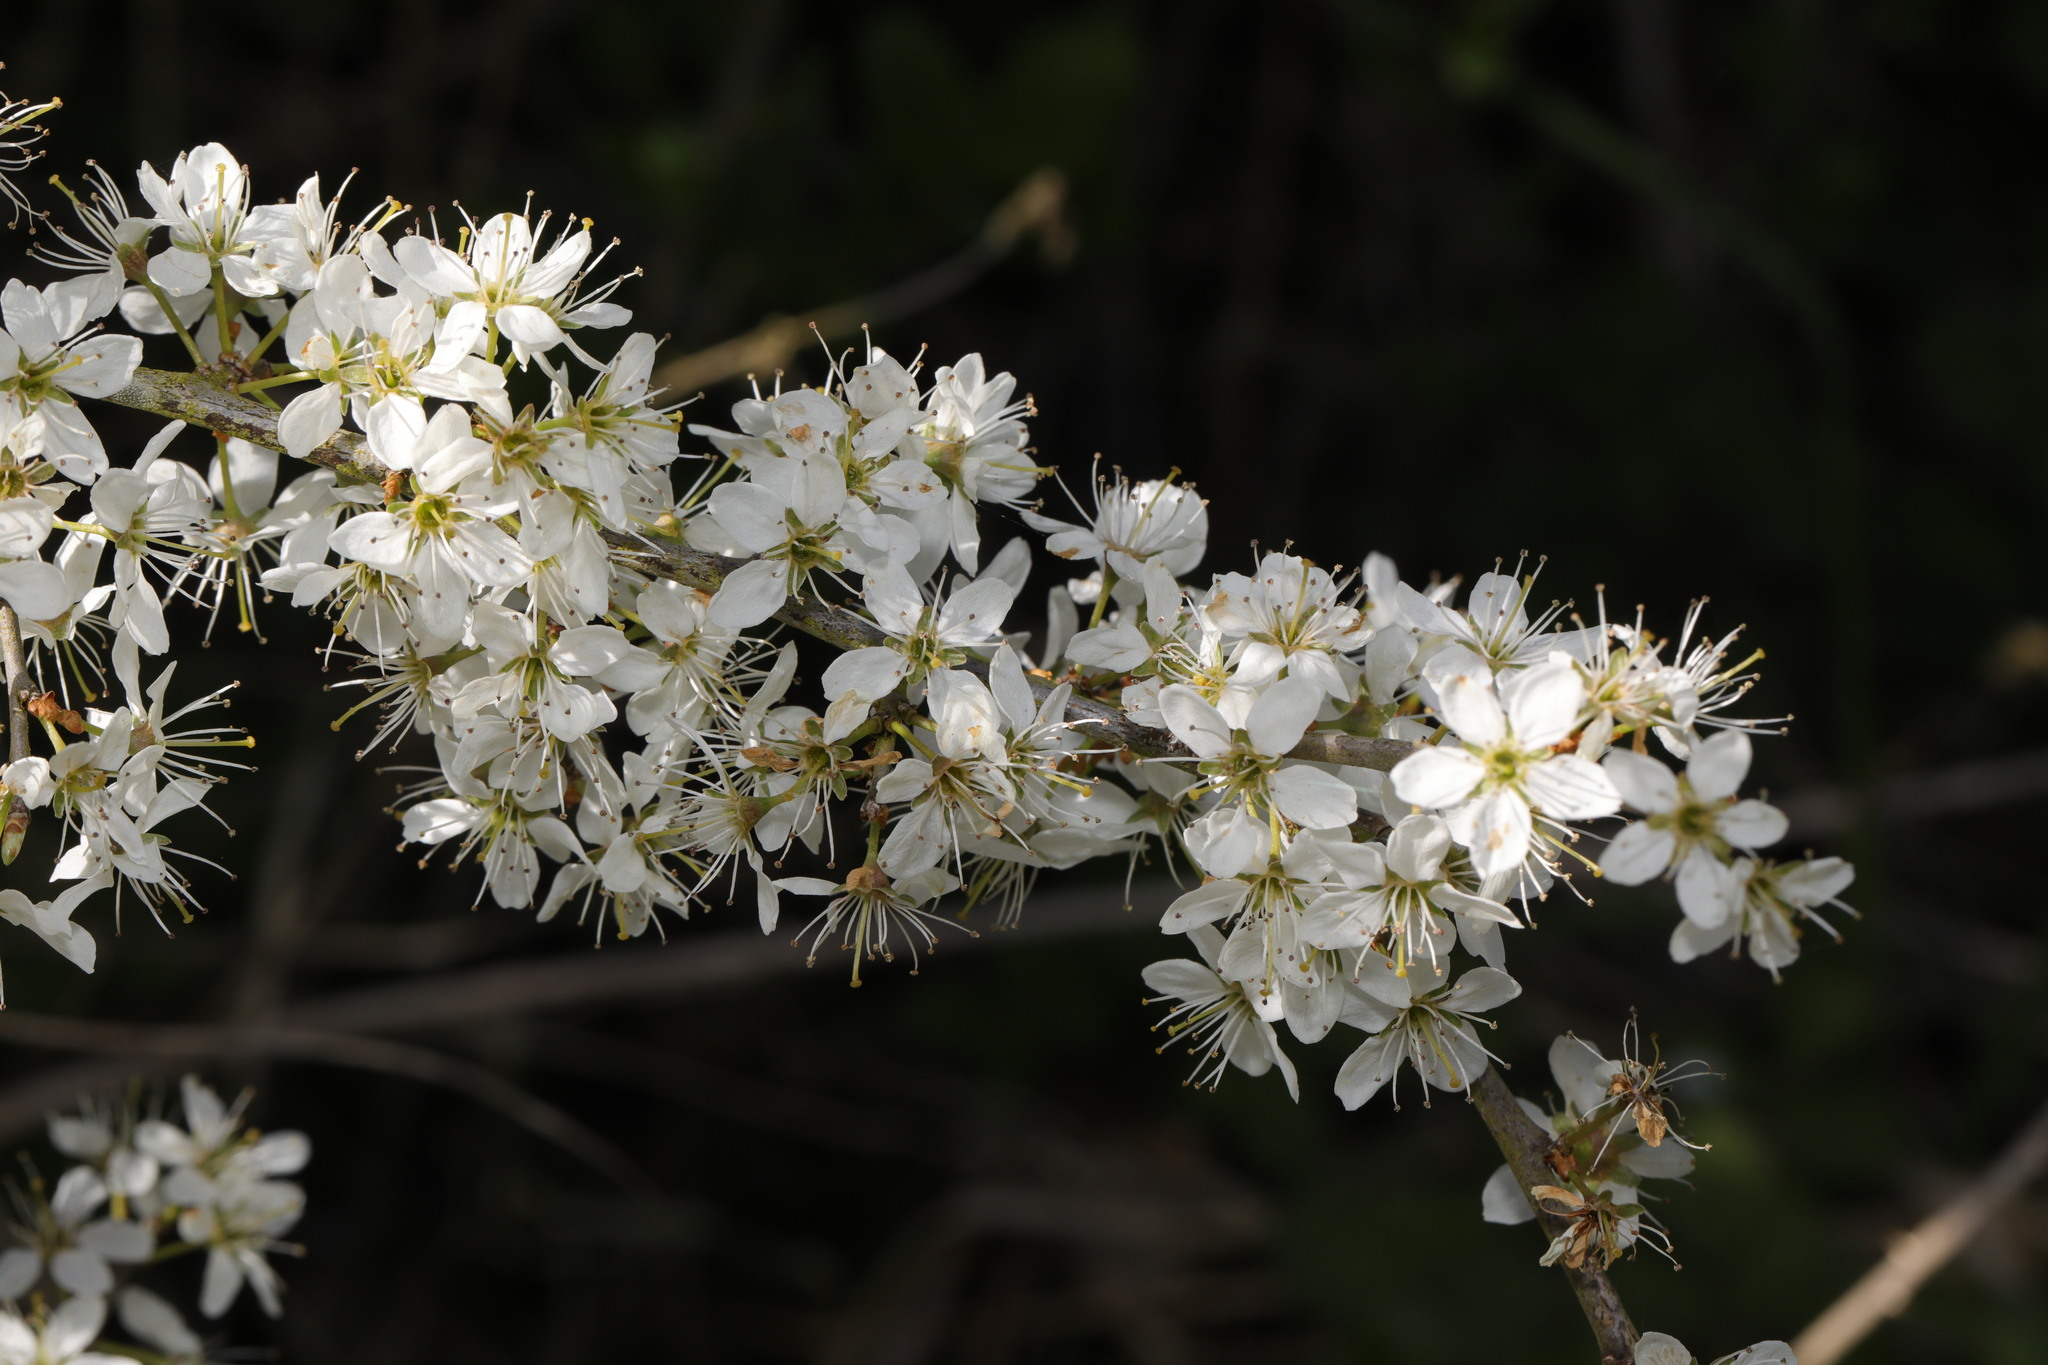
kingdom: Plantae
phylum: Tracheophyta
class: Magnoliopsida
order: Rosales
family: Rosaceae
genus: Prunus
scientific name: Prunus spinosa
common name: Blackthorn
